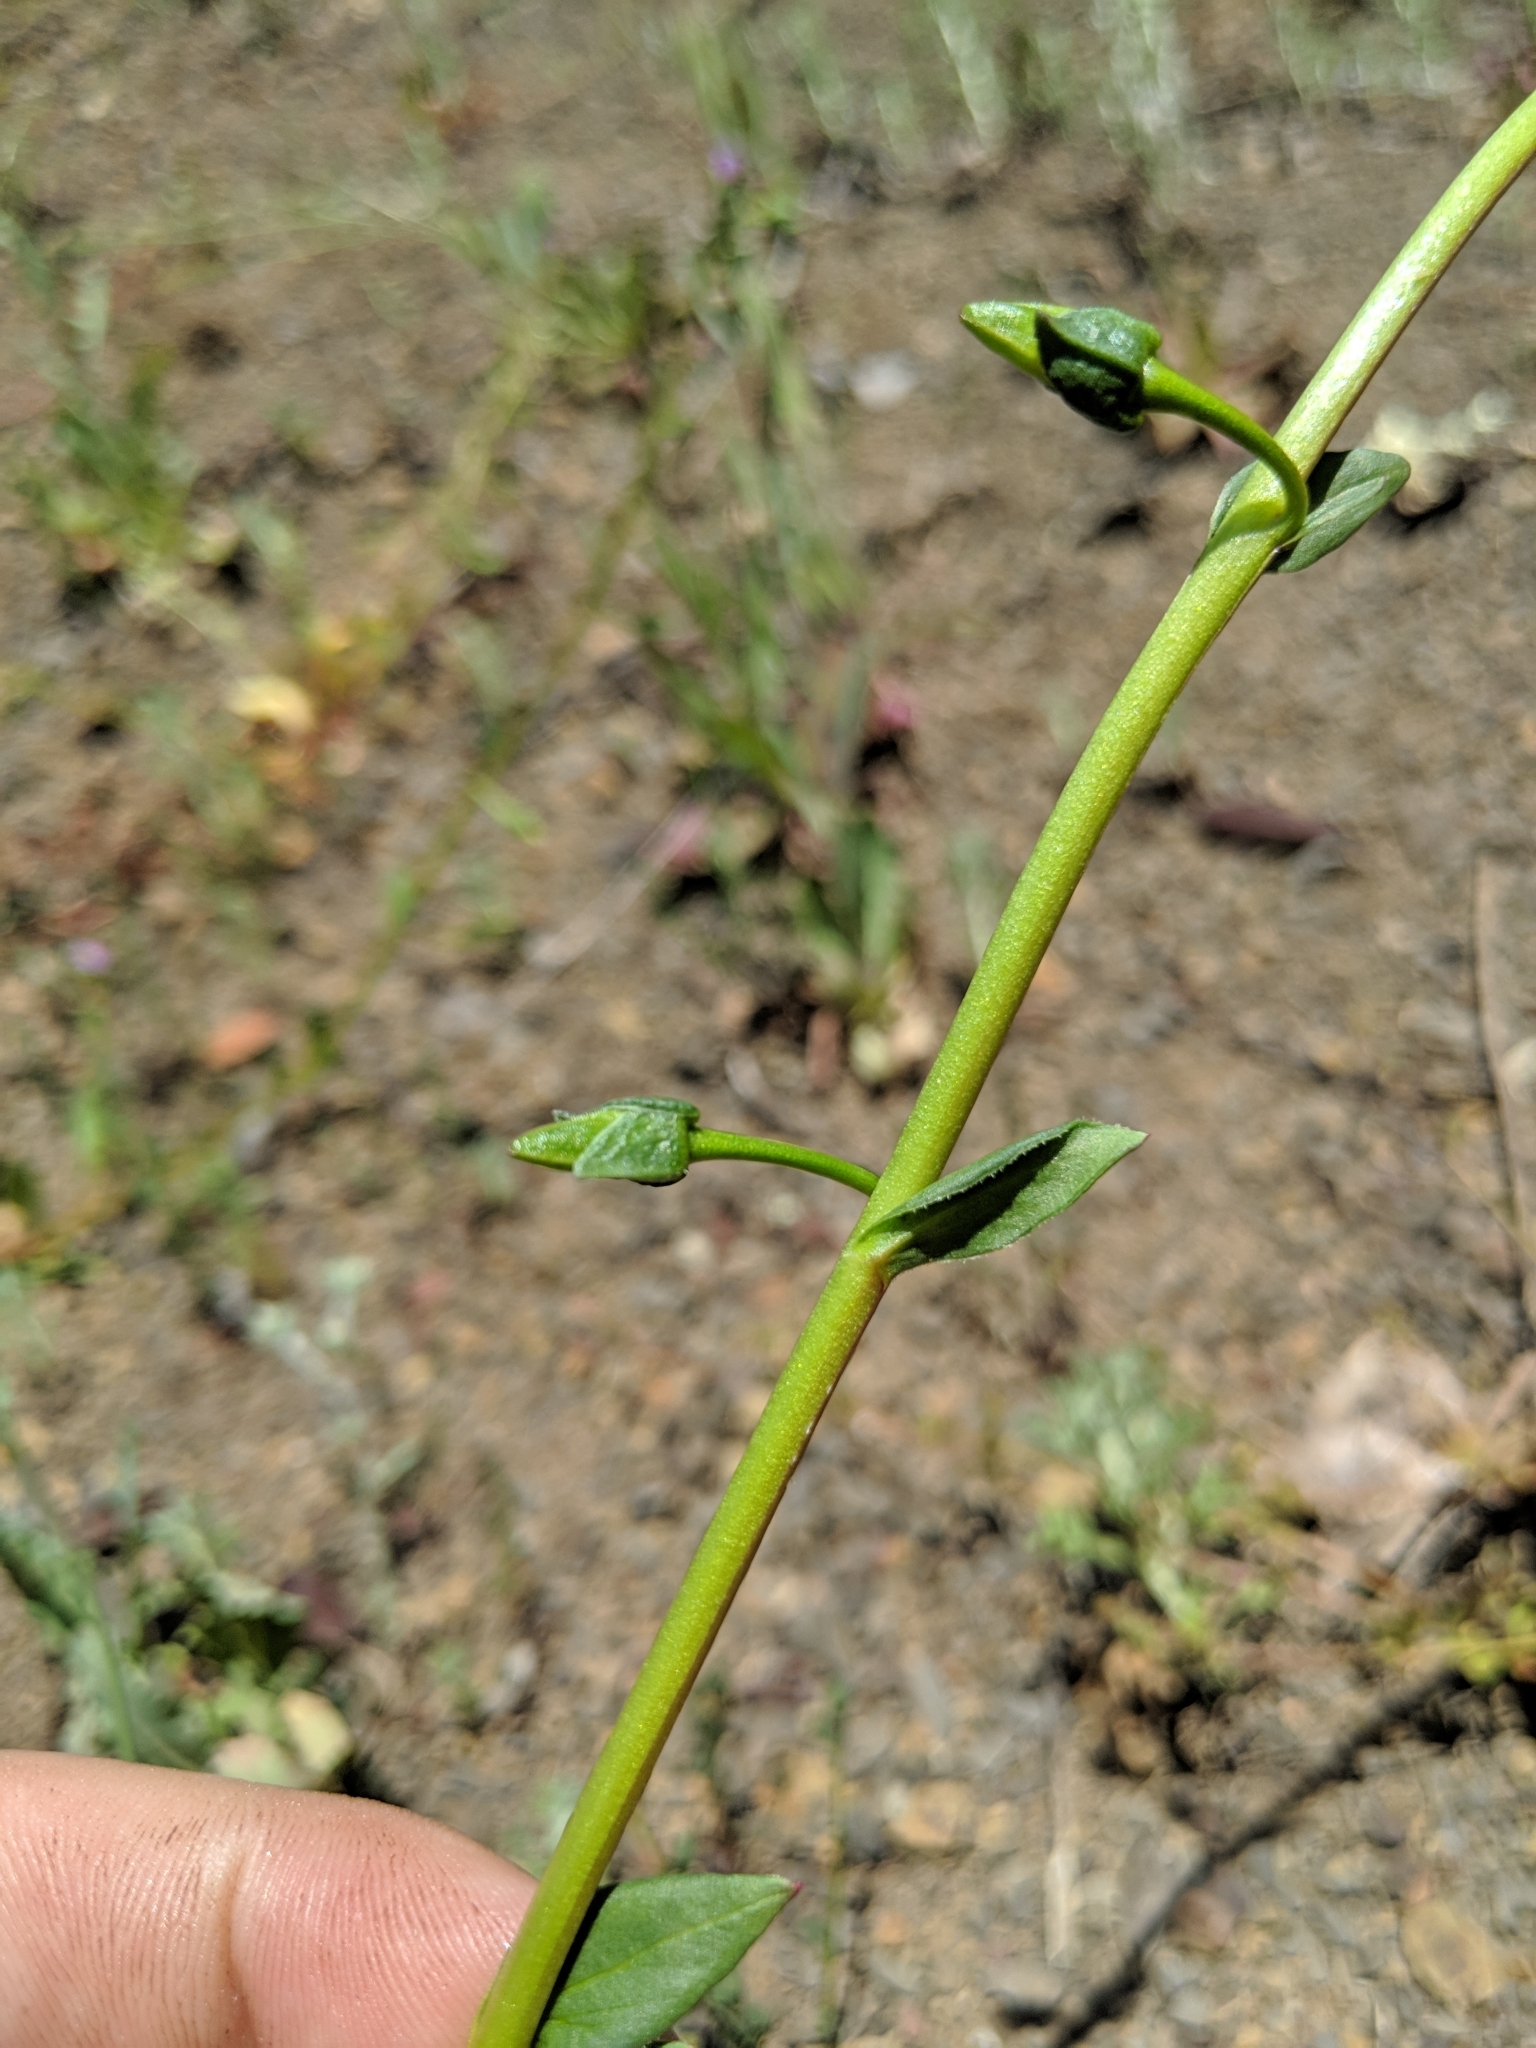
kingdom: Plantae
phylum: Tracheophyta
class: Magnoliopsida
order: Caryophyllales
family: Montiaceae
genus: Calandrinia
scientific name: Calandrinia breweri
